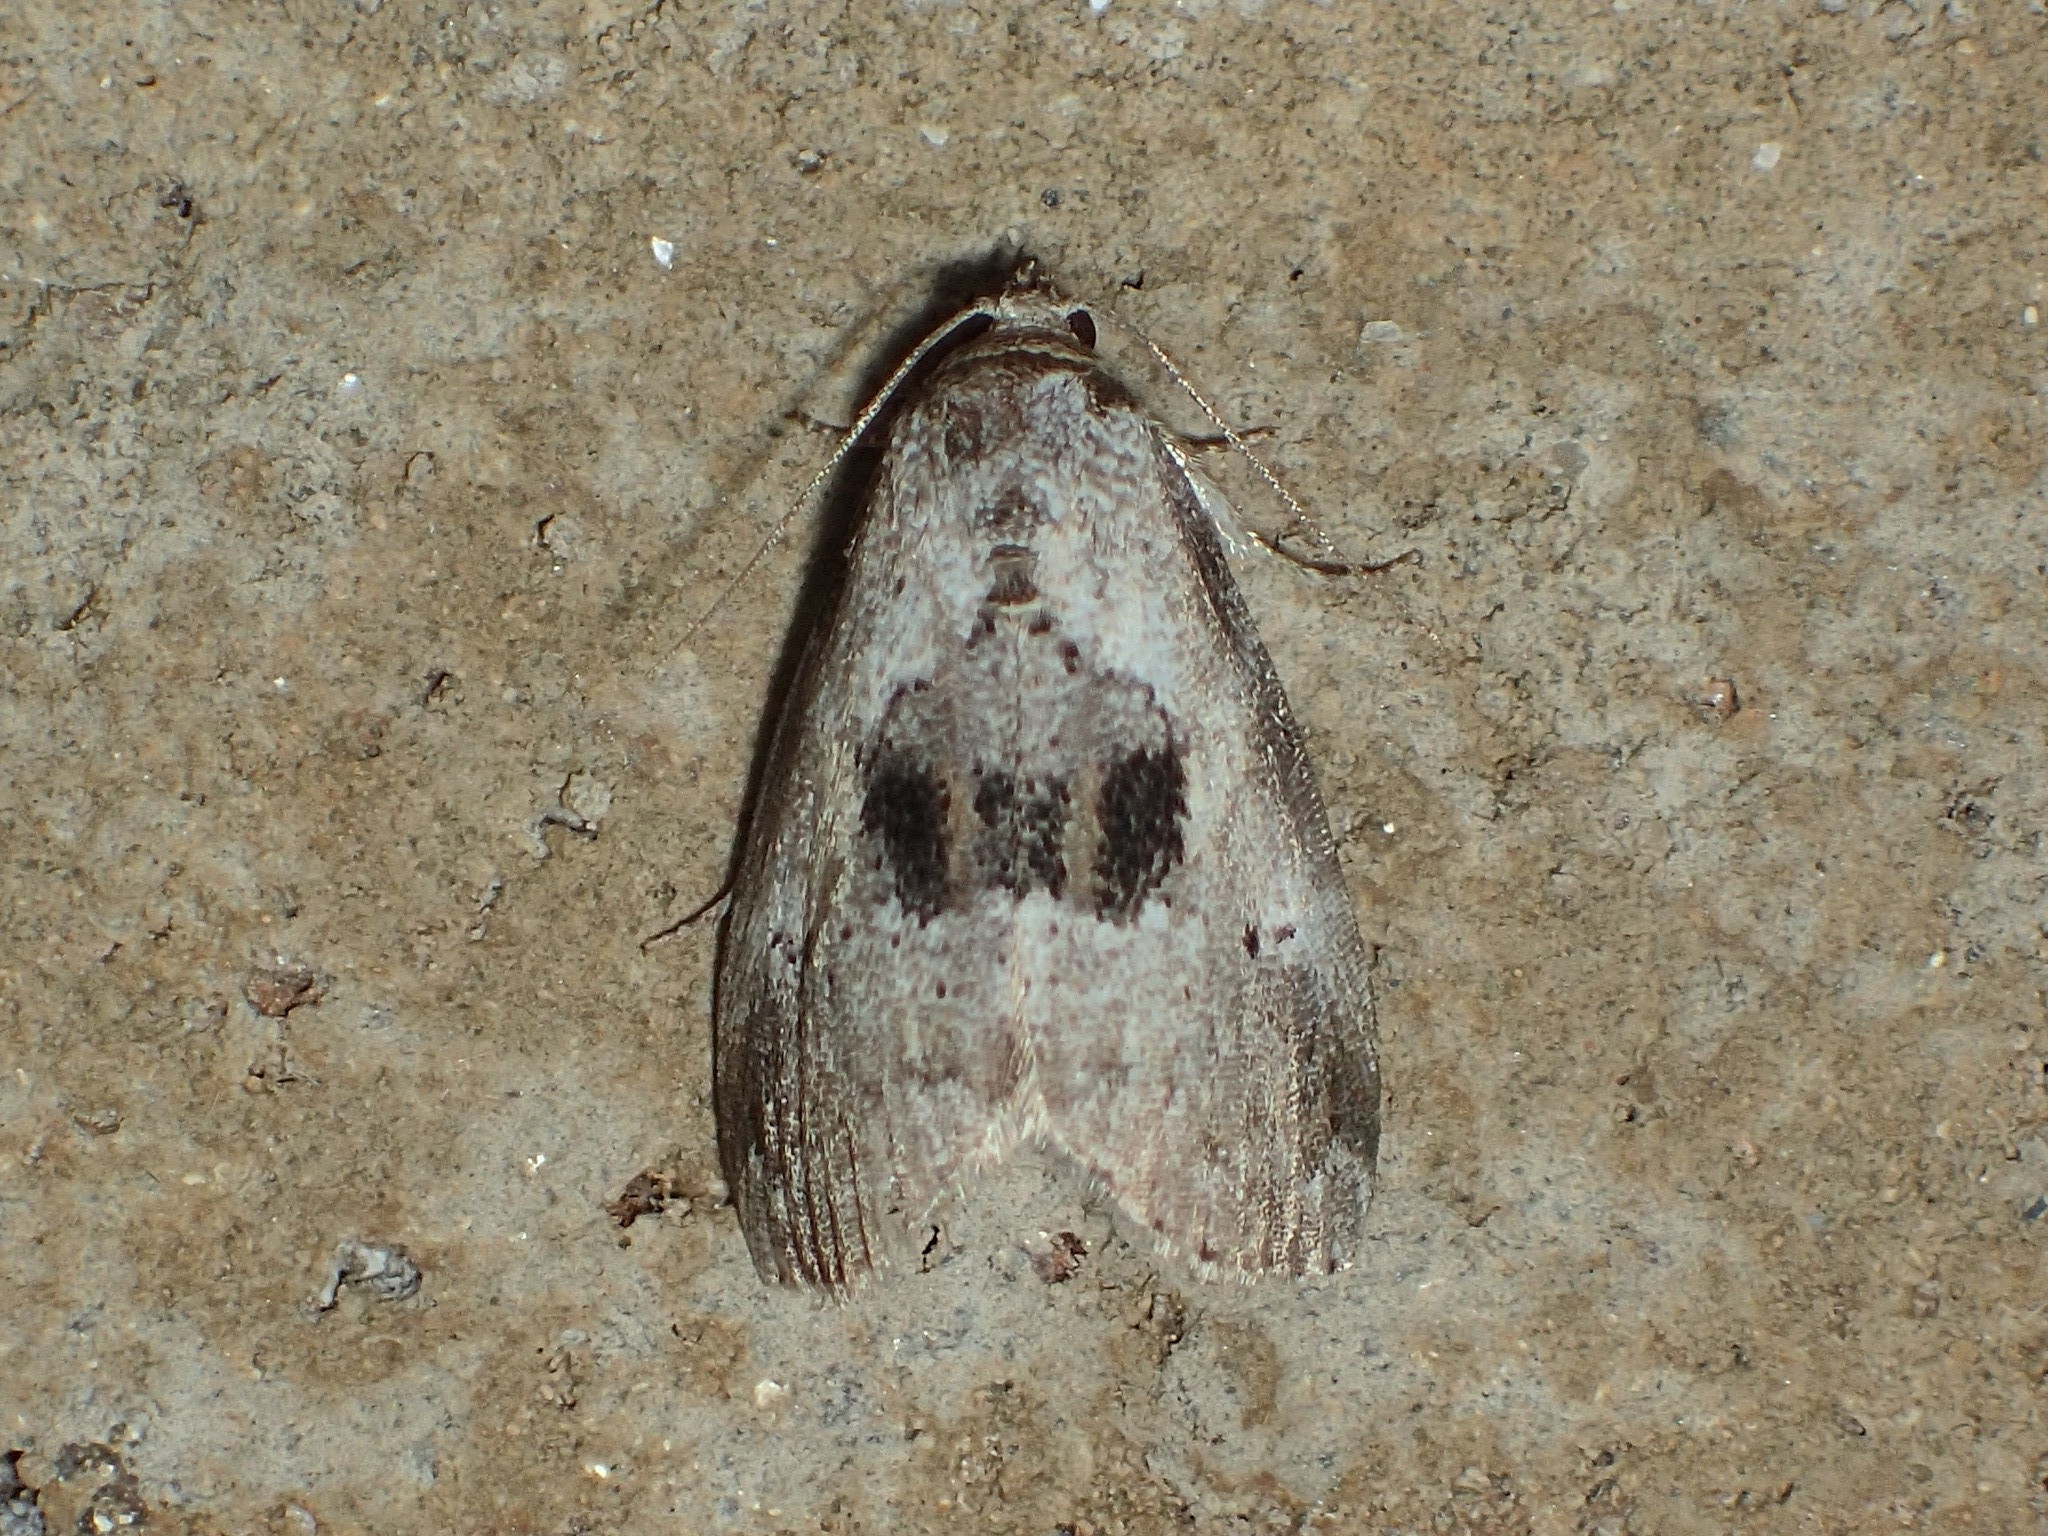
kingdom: Animalia
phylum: Arthropoda
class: Insecta
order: Lepidoptera
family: Erebidae
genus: Hyperstrotia
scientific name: Hyperstrotia secta
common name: Black-patched graylet
